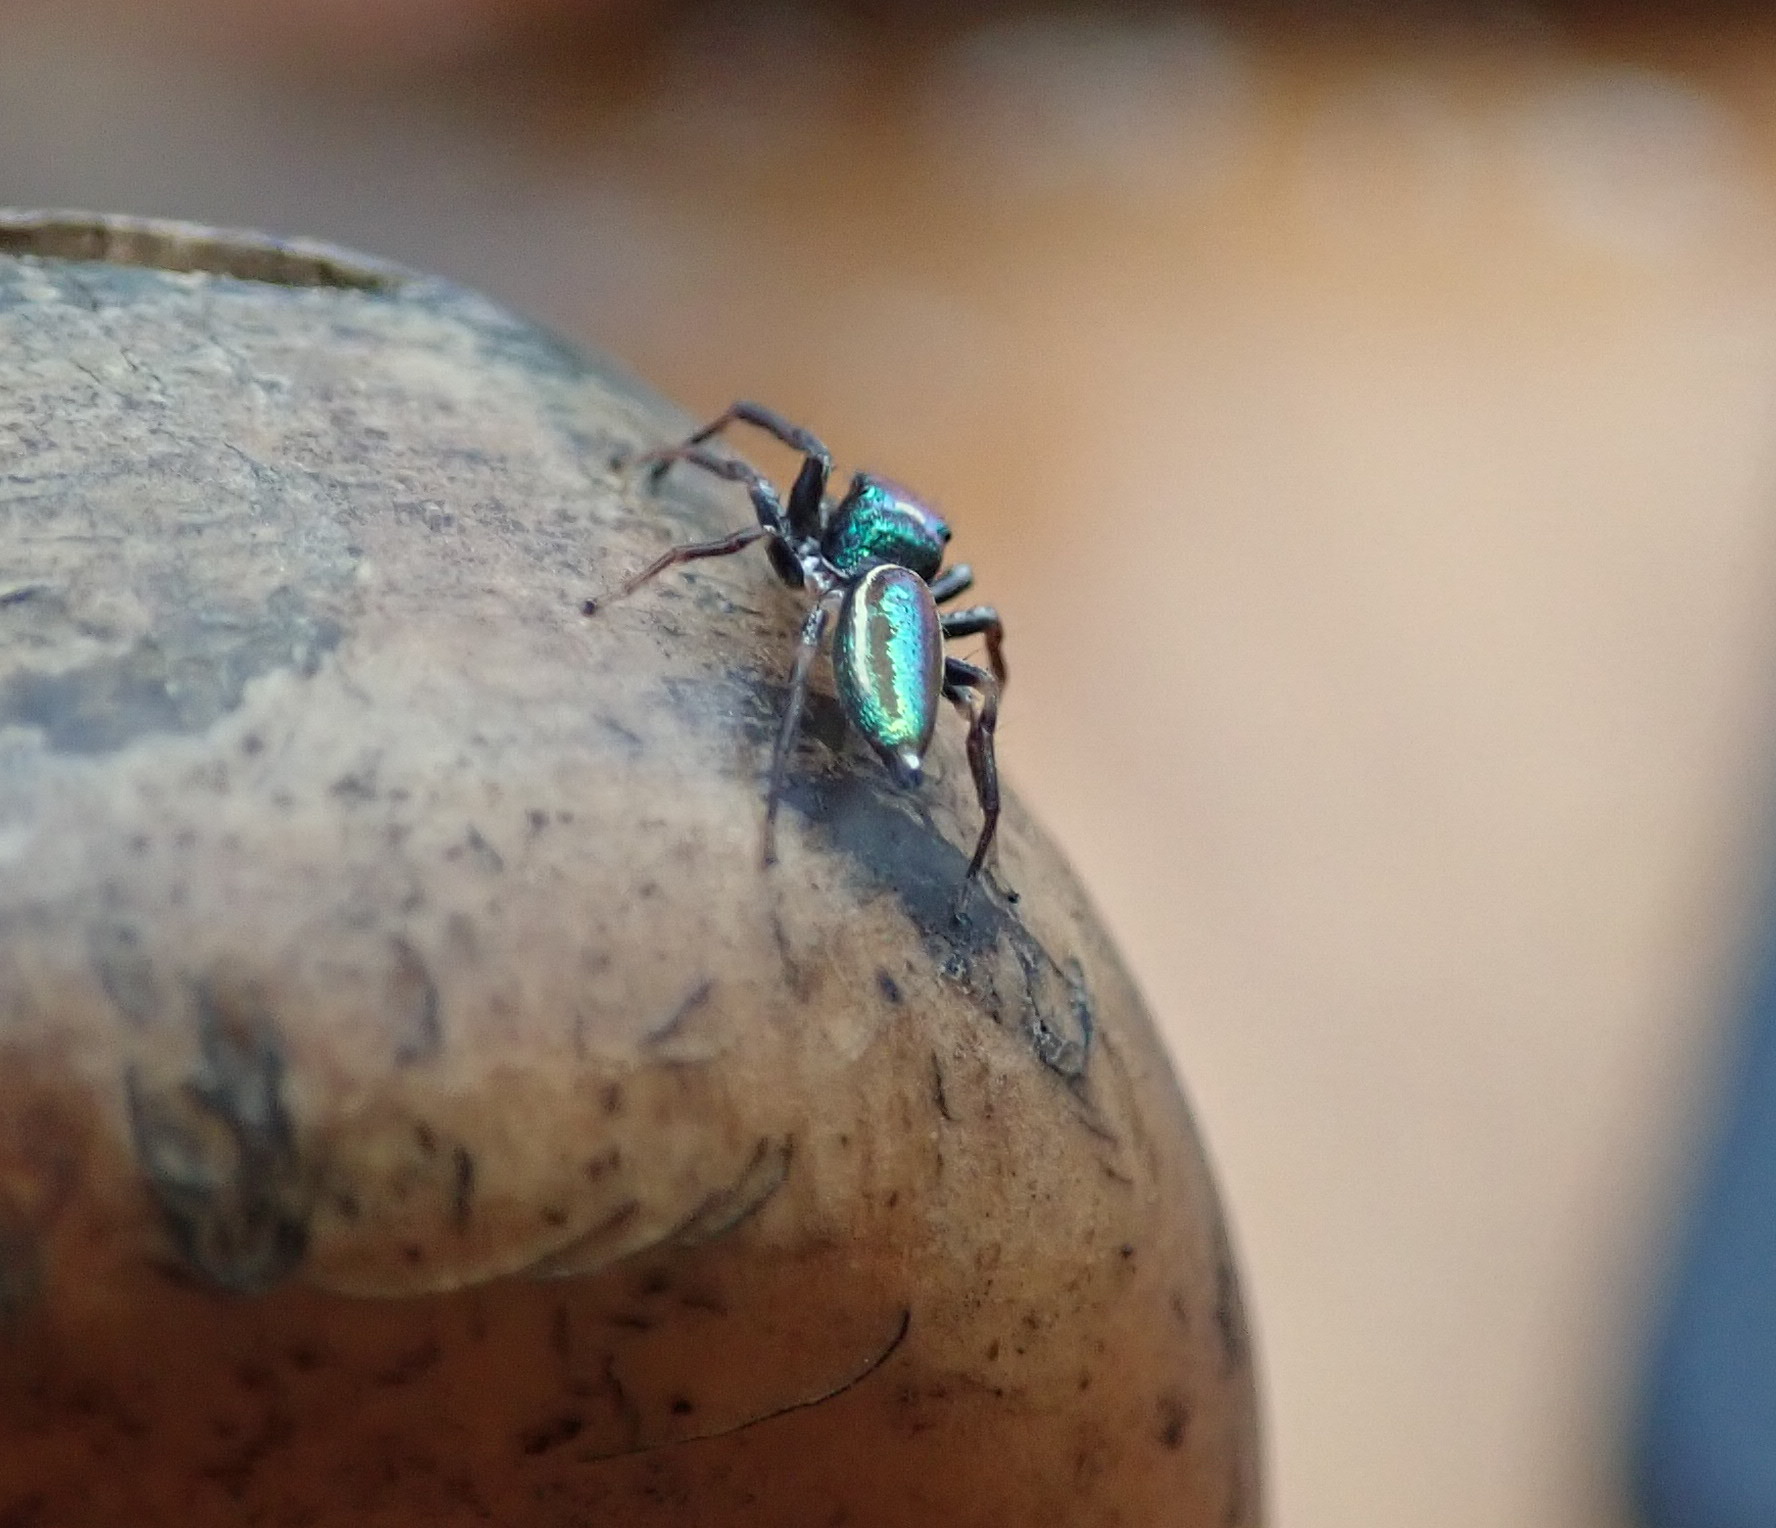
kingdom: Animalia
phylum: Arthropoda
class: Arachnida
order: Araneae
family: Salticidae
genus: Bagheera
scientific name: Bagheera laselva
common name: Jumping spiders
